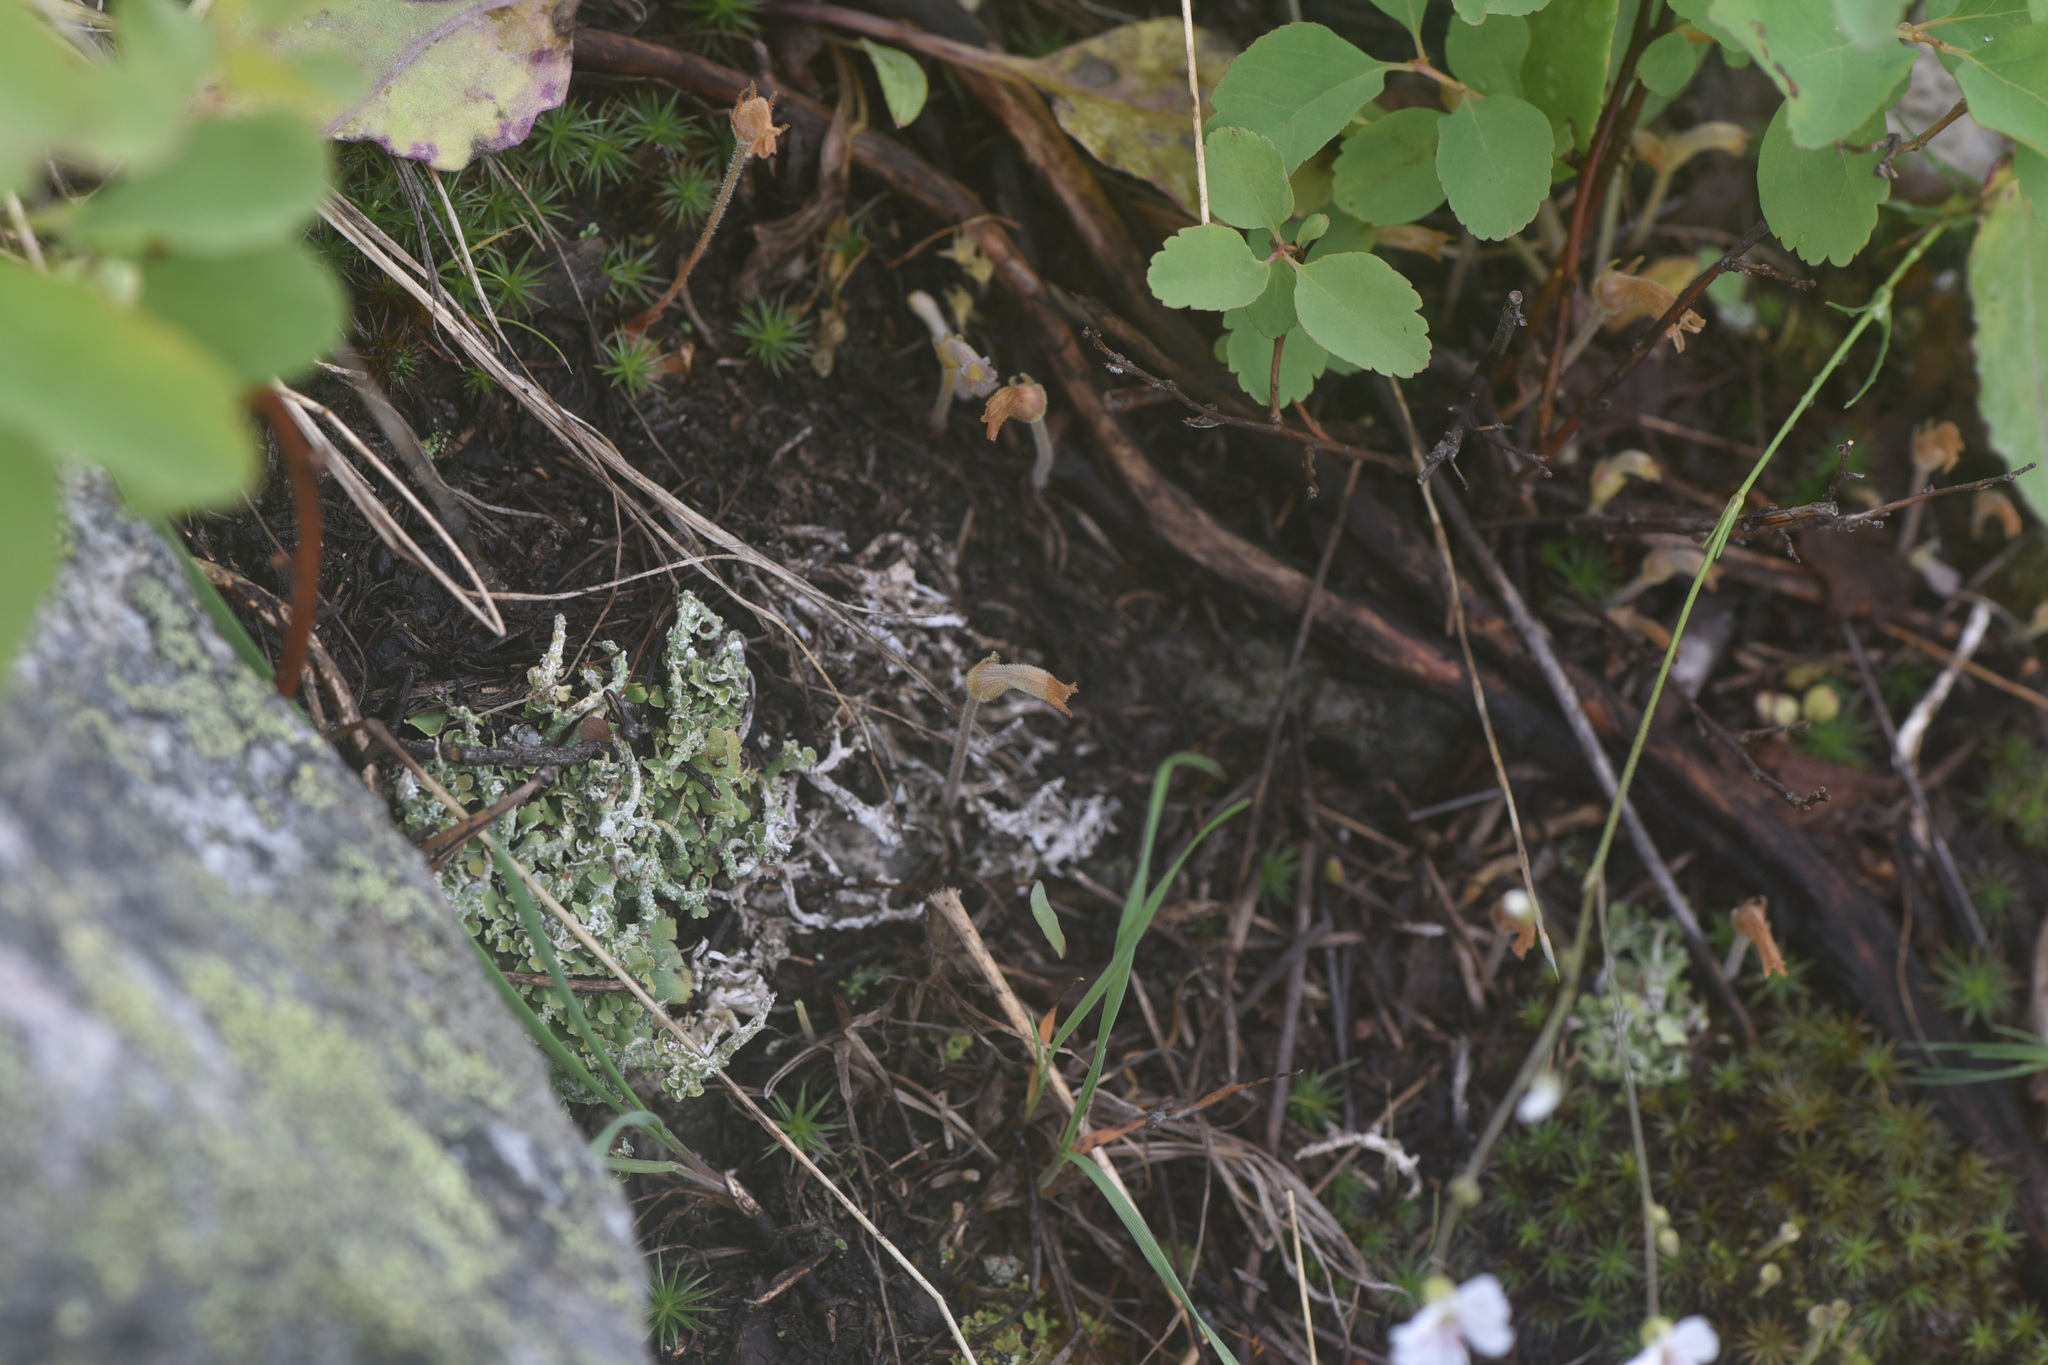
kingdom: Plantae
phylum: Tracheophyta
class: Magnoliopsida
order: Lamiales
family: Orobanchaceae
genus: Aphyllon
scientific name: Aphyllon uniflorum
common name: One-flowered broomrape
